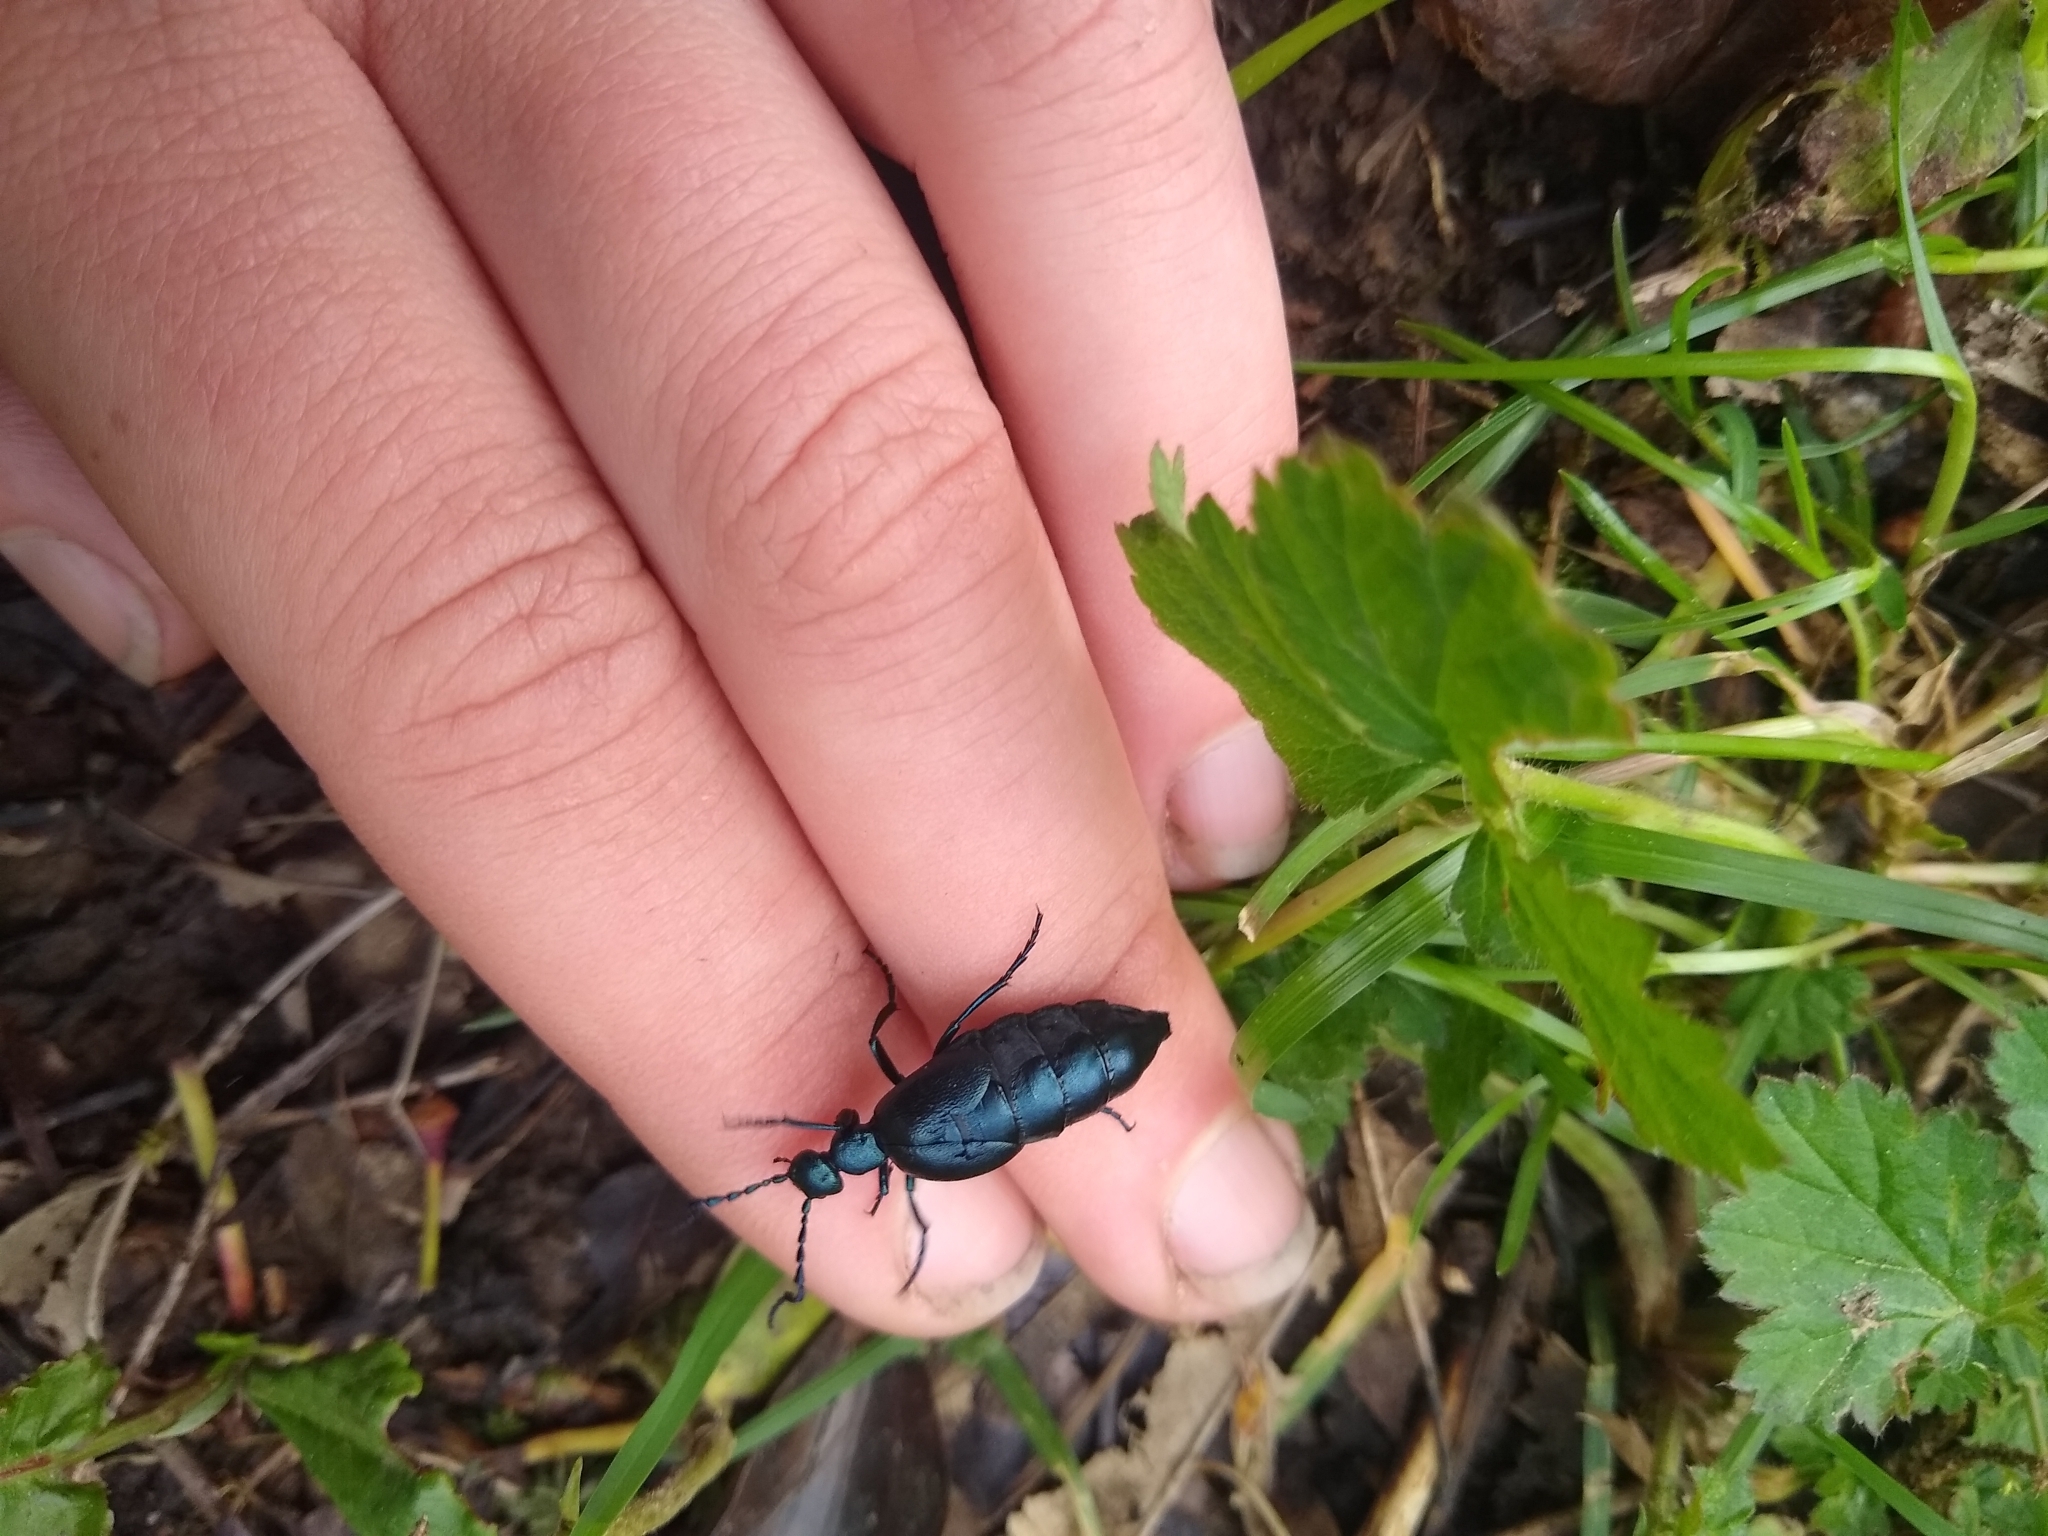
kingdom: Animalia
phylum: Arthropoda
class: Insecta
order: Coleoptera
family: Meloidae
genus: Meloe
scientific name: Meloe violaceus
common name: Violet oil-beetle
